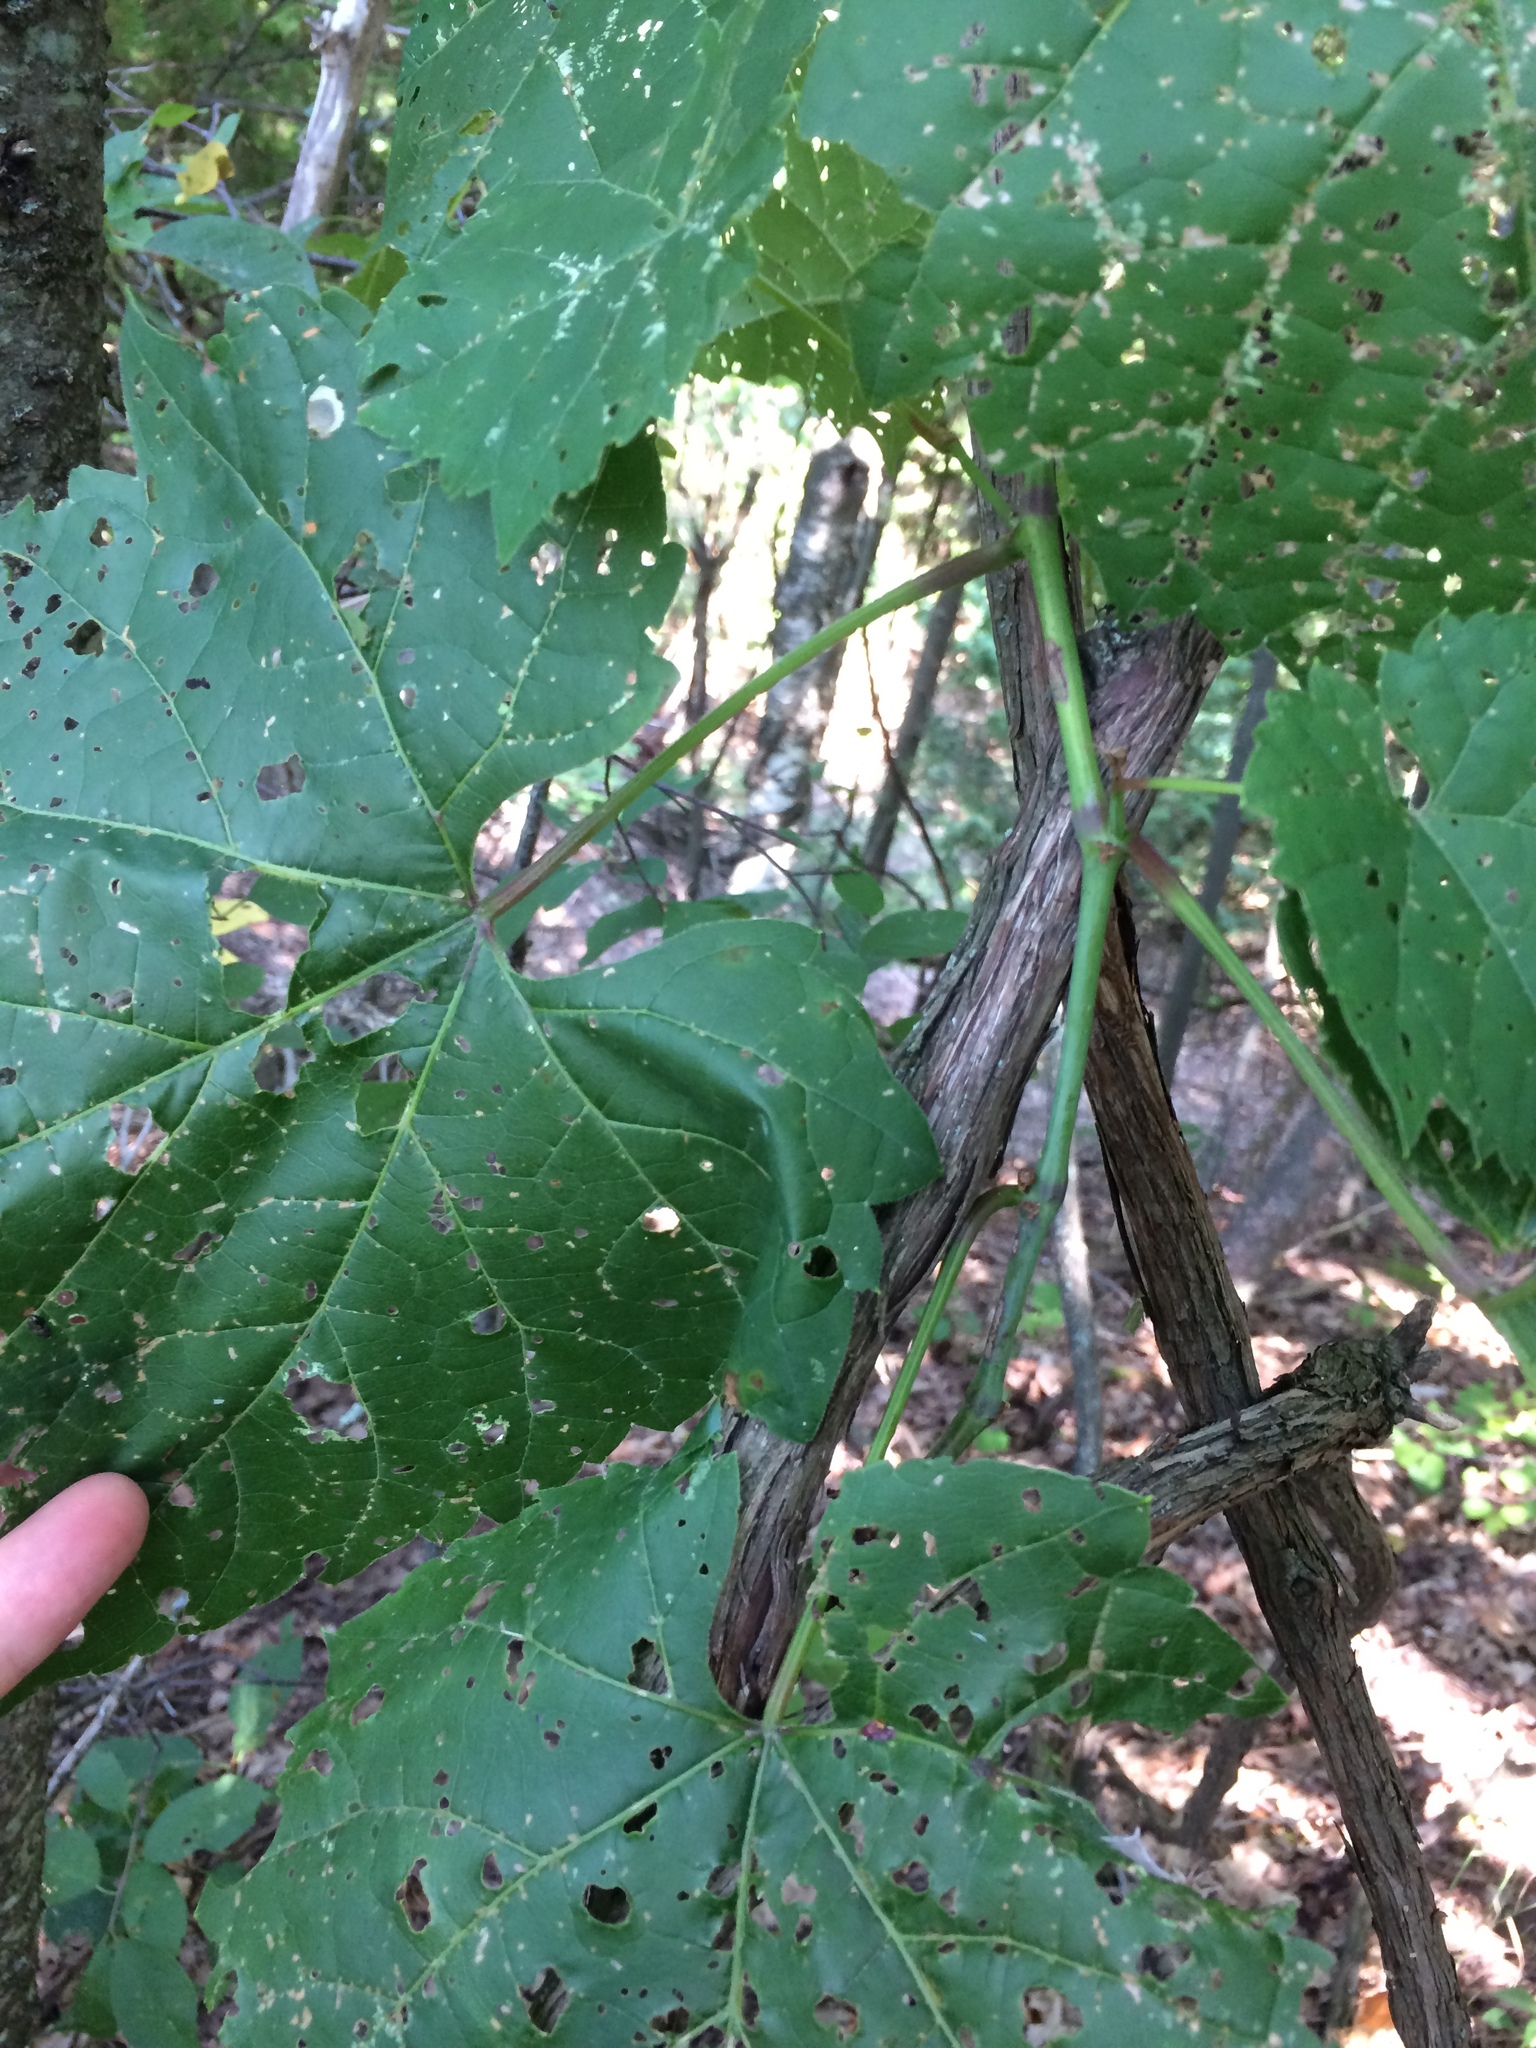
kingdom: Plantae
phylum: Tracheophyta
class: Magnoliopsida
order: Vitales
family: Vitaceae
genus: Vitis
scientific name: Vitis riparia
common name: Frost grape
